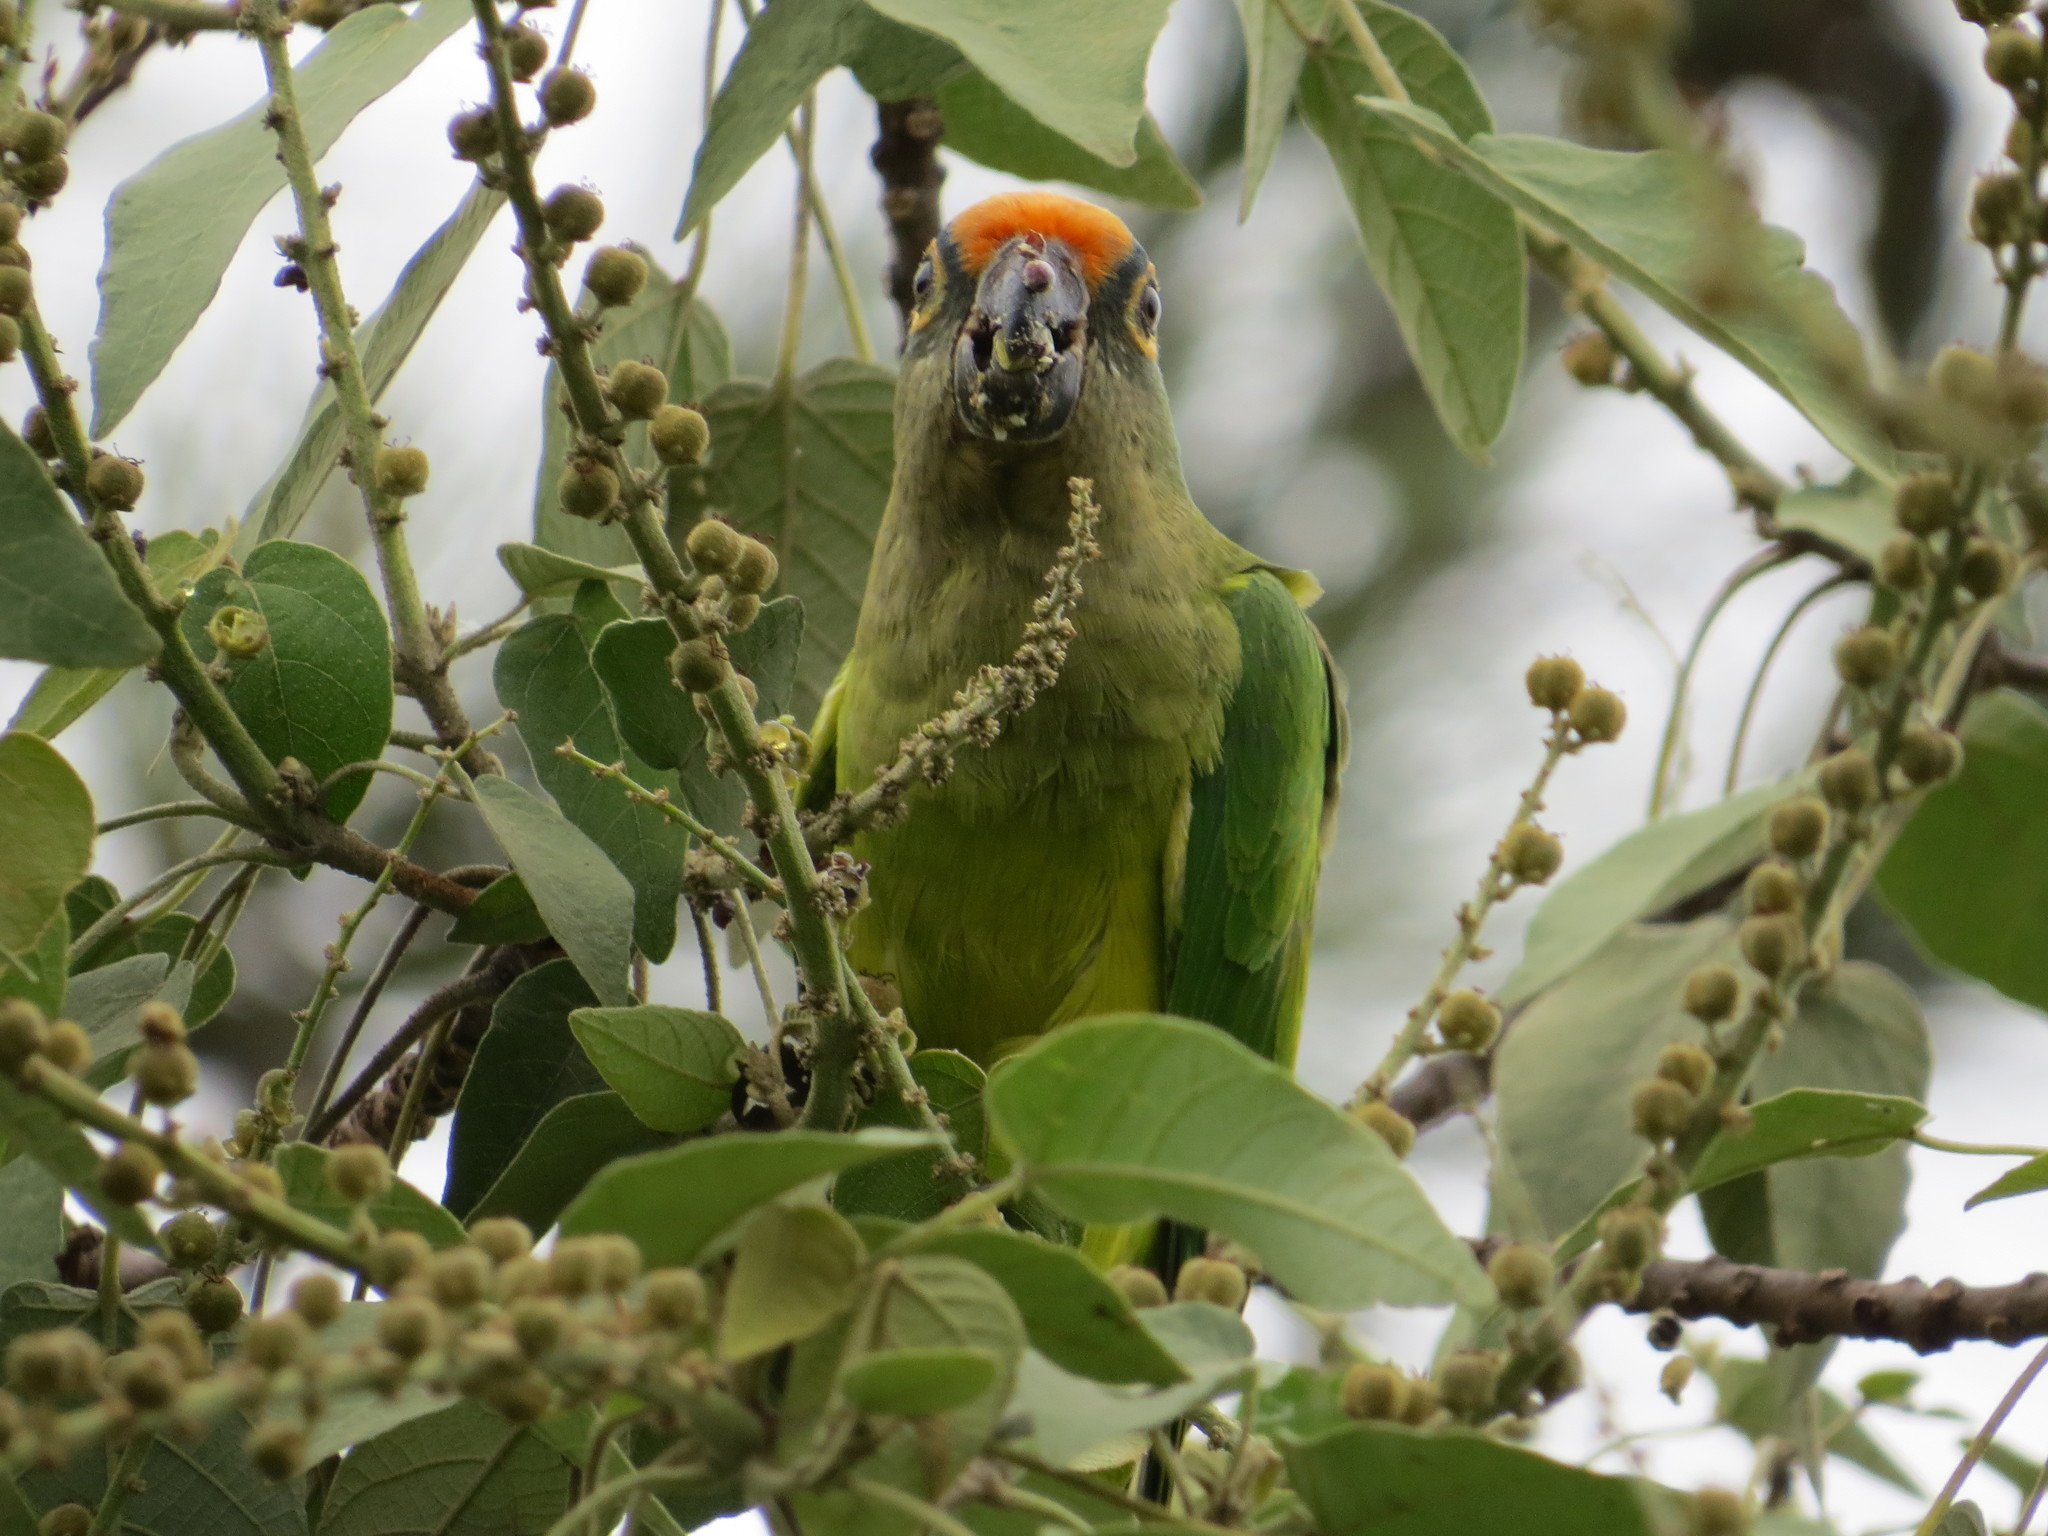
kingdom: Animalia
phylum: Chordata
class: Aves
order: Psittaciformes
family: Psittacidae
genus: Aratinga
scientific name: Aratinga aurea
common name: Peach-fronted parakeet
